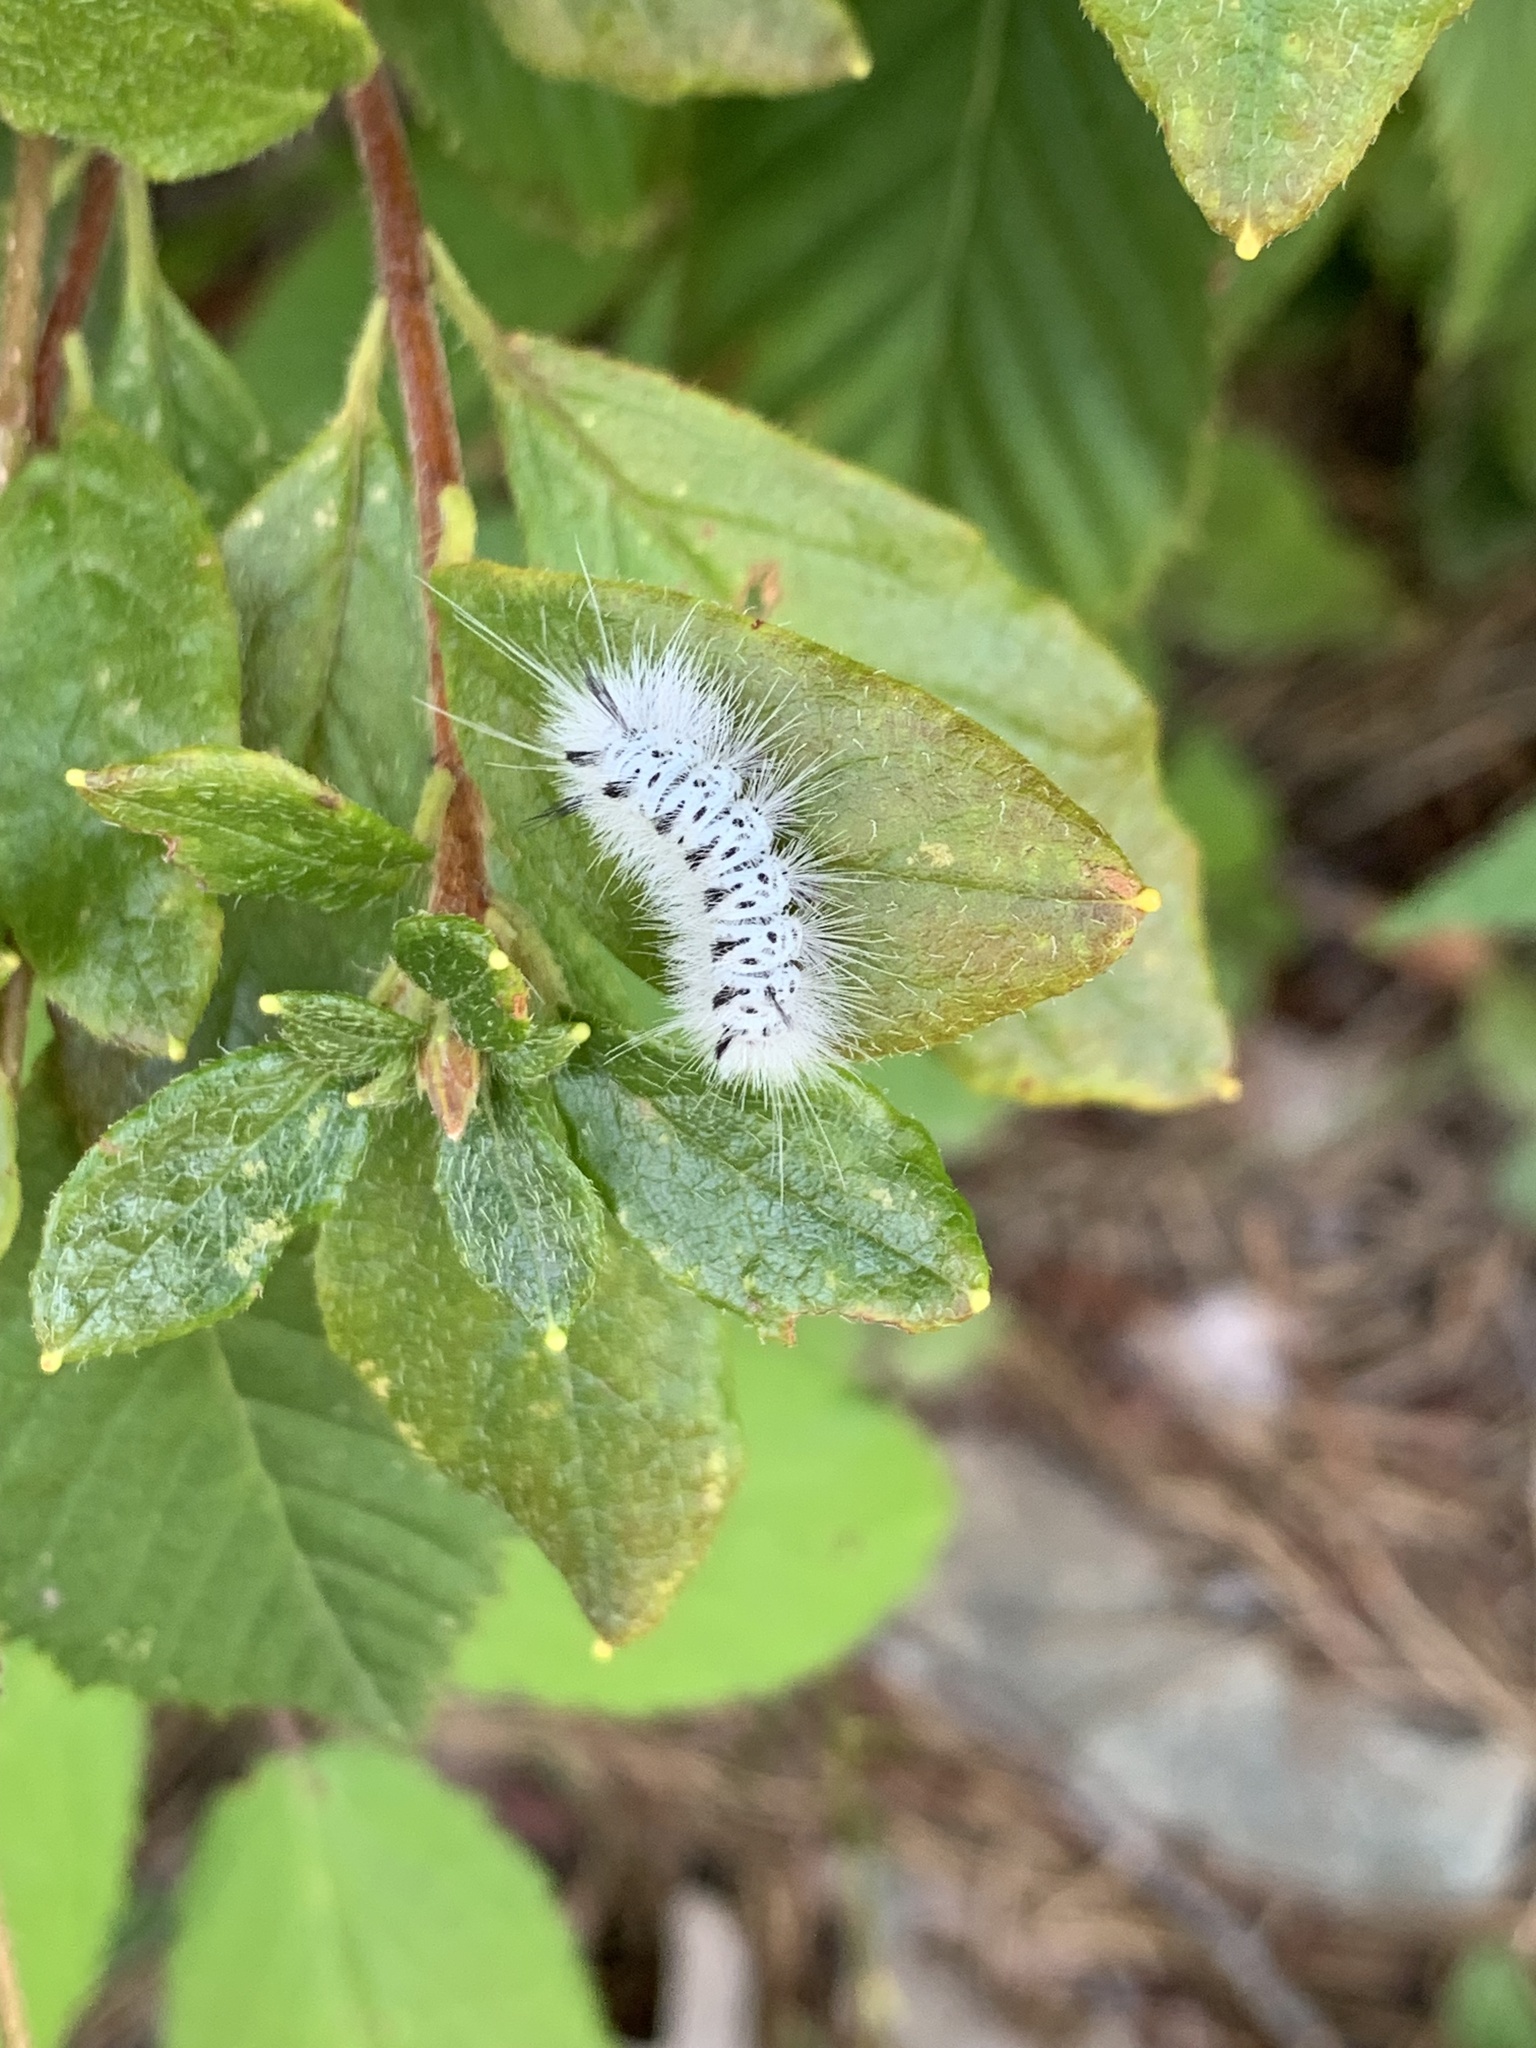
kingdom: Animalia
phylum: Arthropoda
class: Insecta
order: Lepidoptera
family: Erebidae
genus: Lophocampa
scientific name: Lophocampa caryae
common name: Hickory tussock moth
